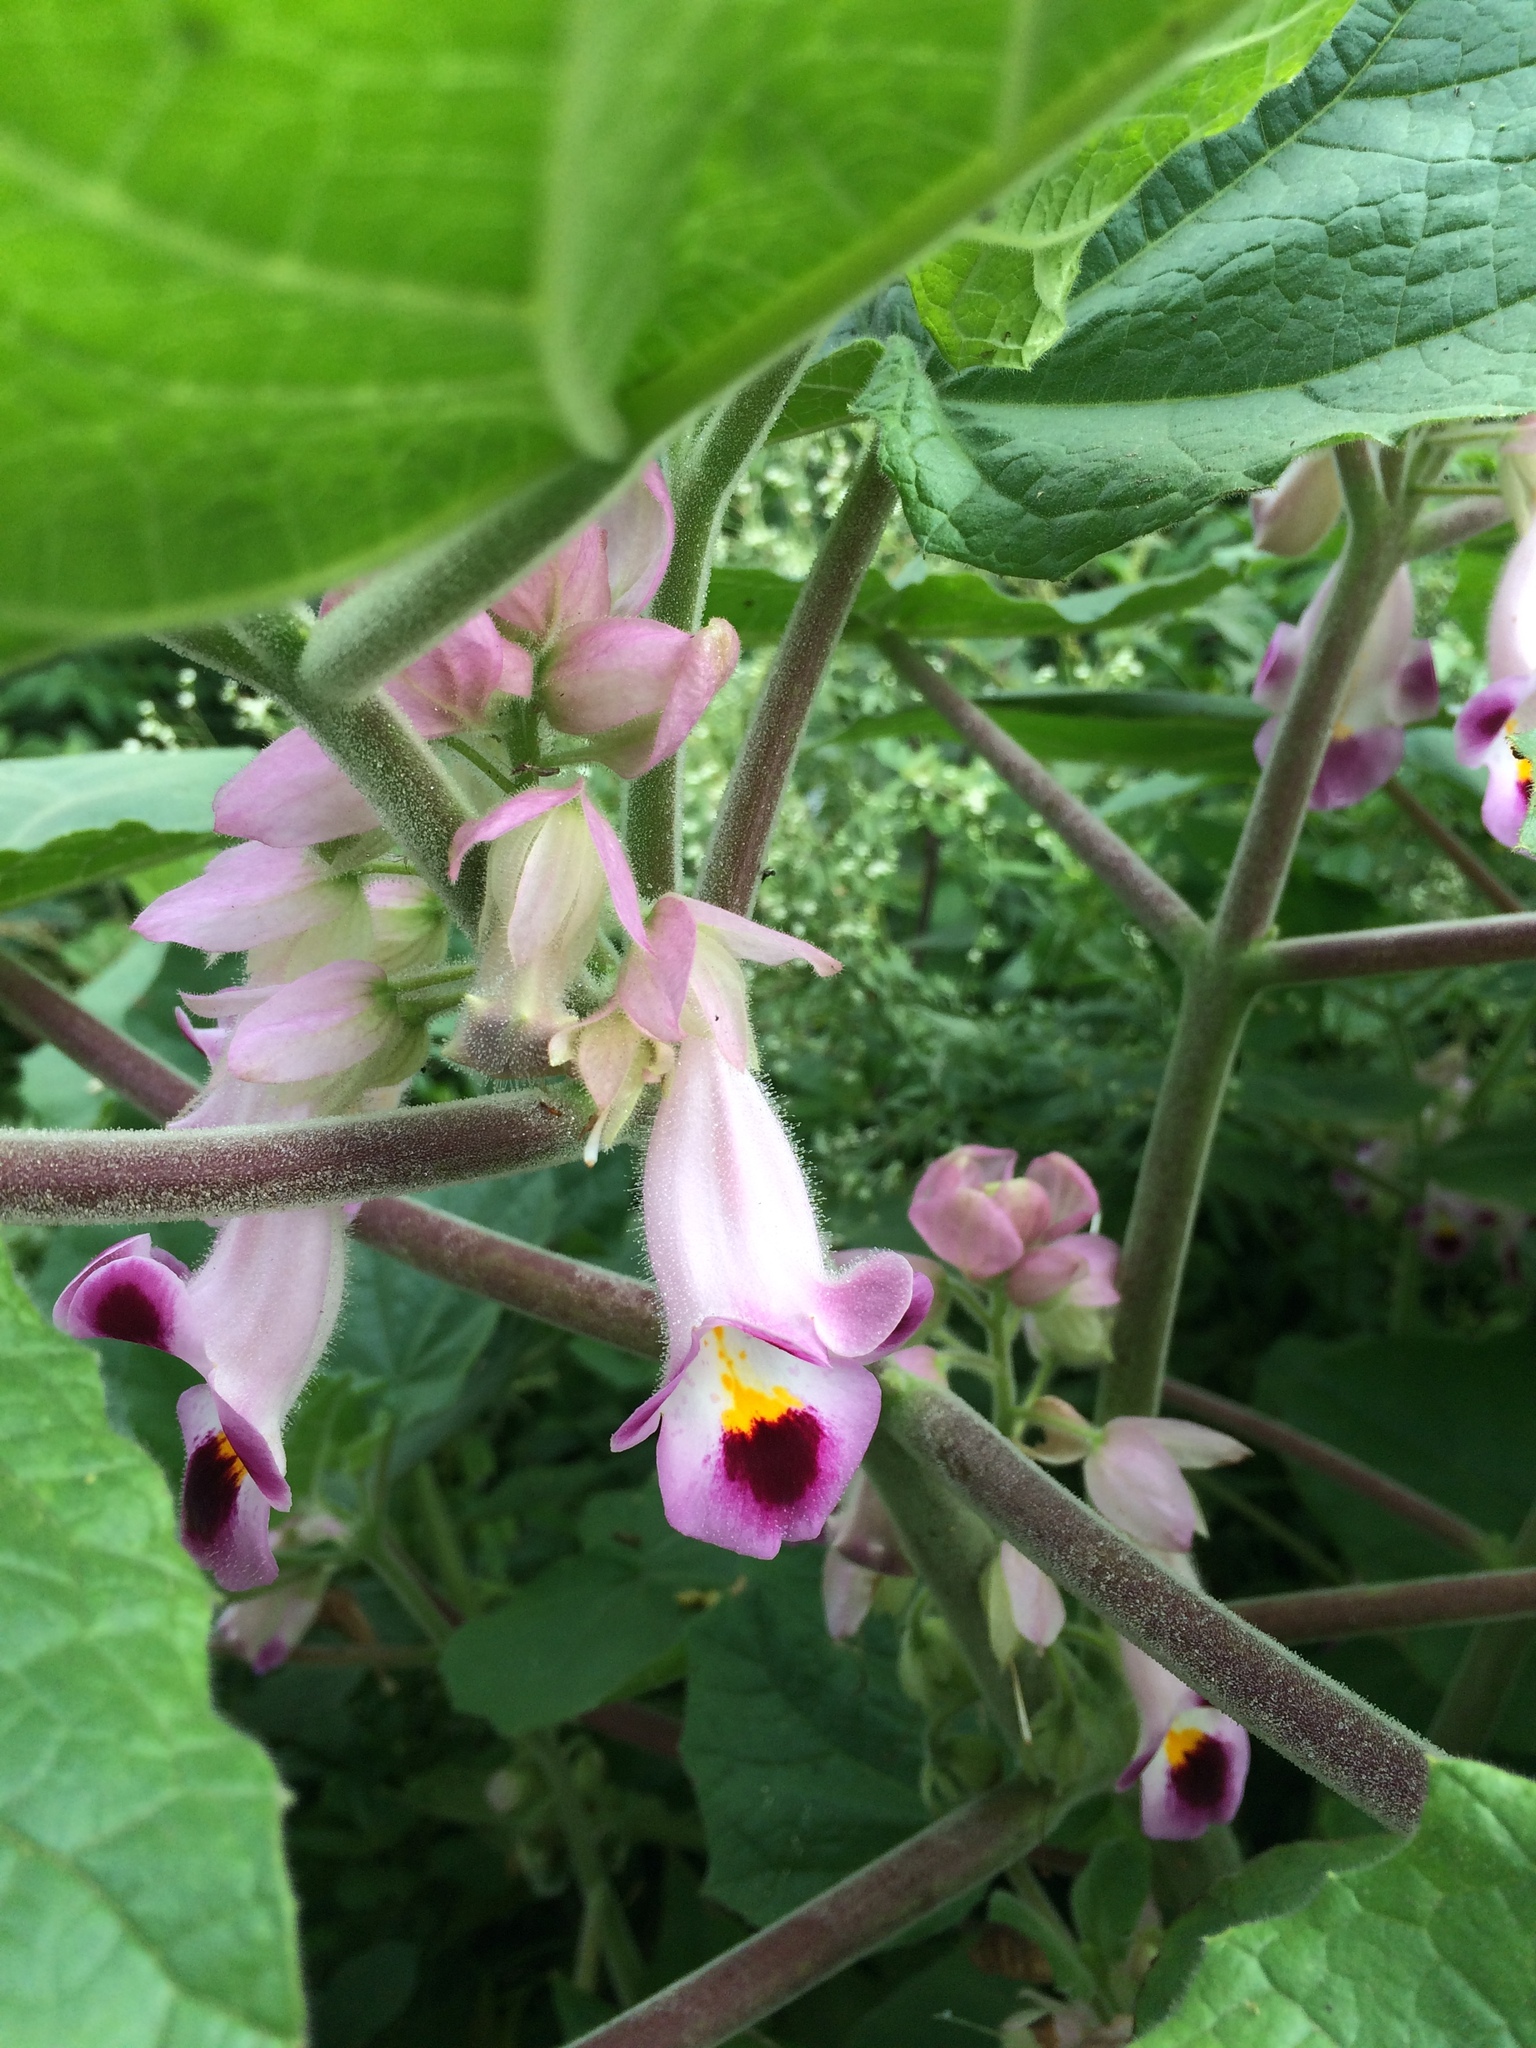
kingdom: Plantae
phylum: Tracheophyta
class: Magnoliopsida
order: Lamiales
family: Martyniaceae
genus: Martynia
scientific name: Martynia annua
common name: Tiger's-claw
